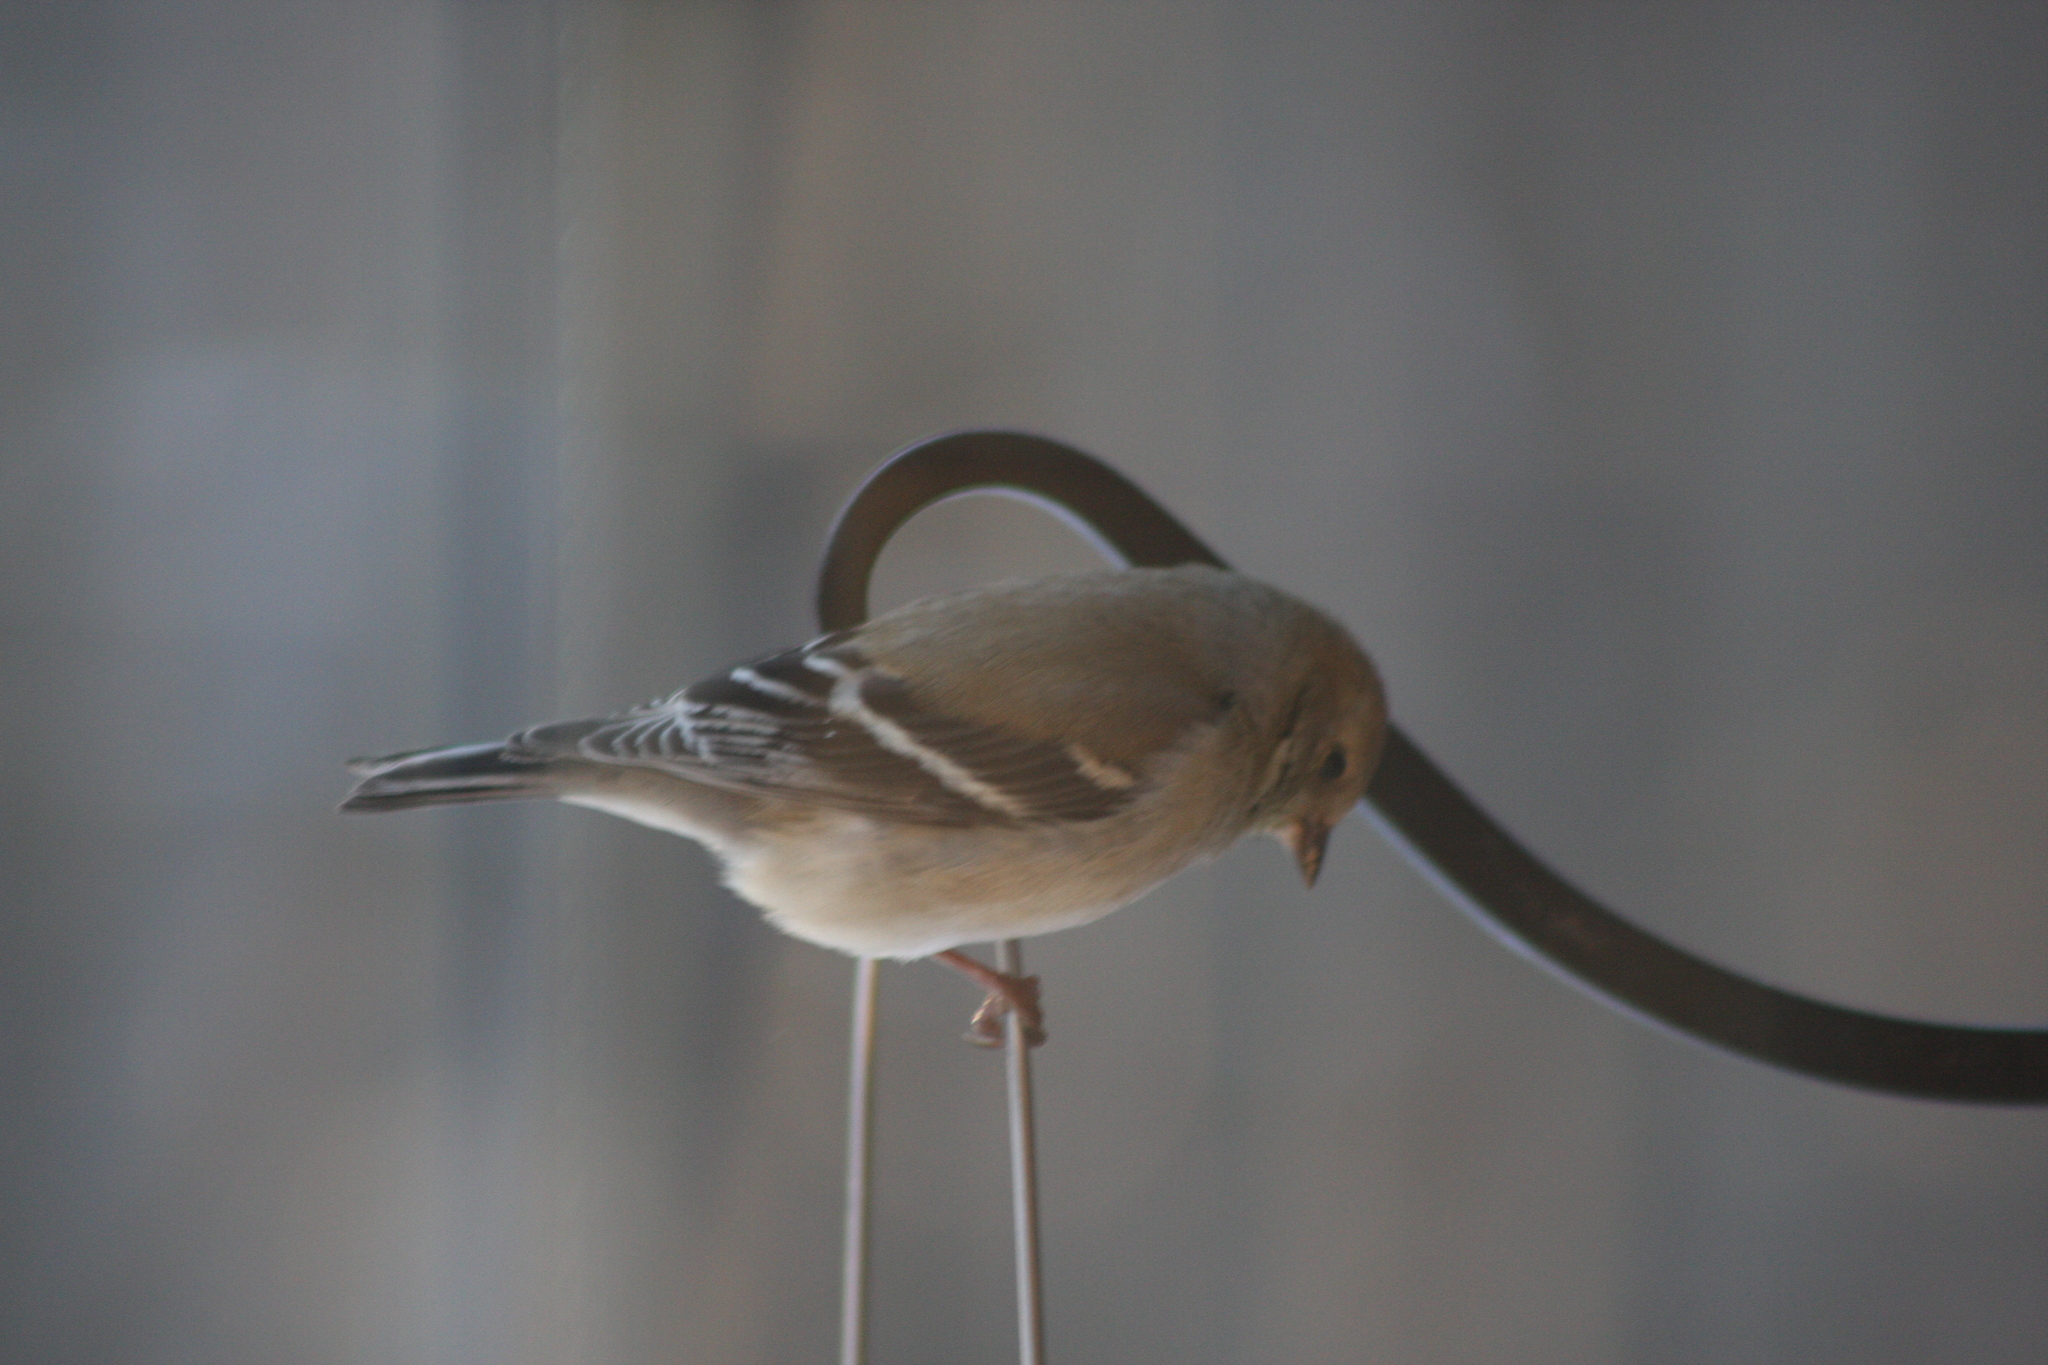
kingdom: Animalia
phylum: Chordata
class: Aves
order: Passeriformes
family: Fringillidae
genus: Spinus
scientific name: Spinus tristis
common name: American goldfinch
